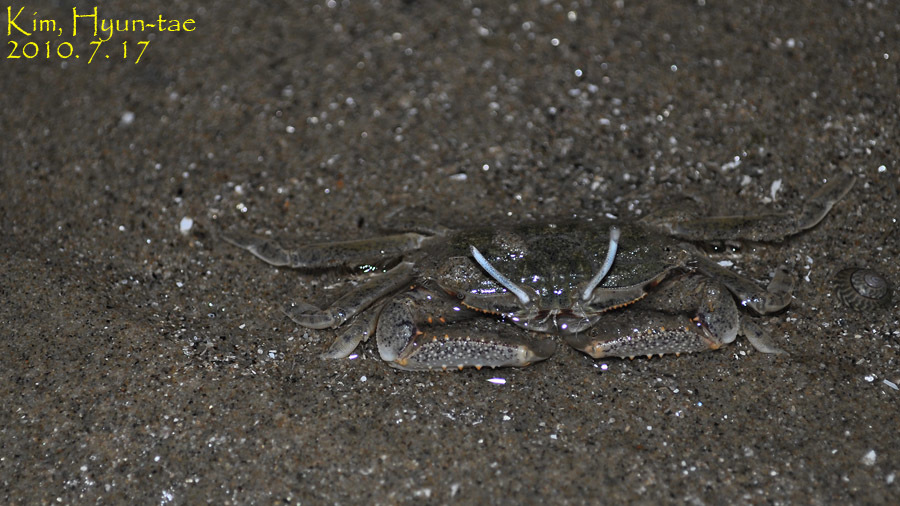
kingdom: Animalia
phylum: Arthropoda
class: Malacostraca
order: Decapoda
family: Macrophthalmidae
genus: Macrophthalmus
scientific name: Macrophthalmus abbreviatus
